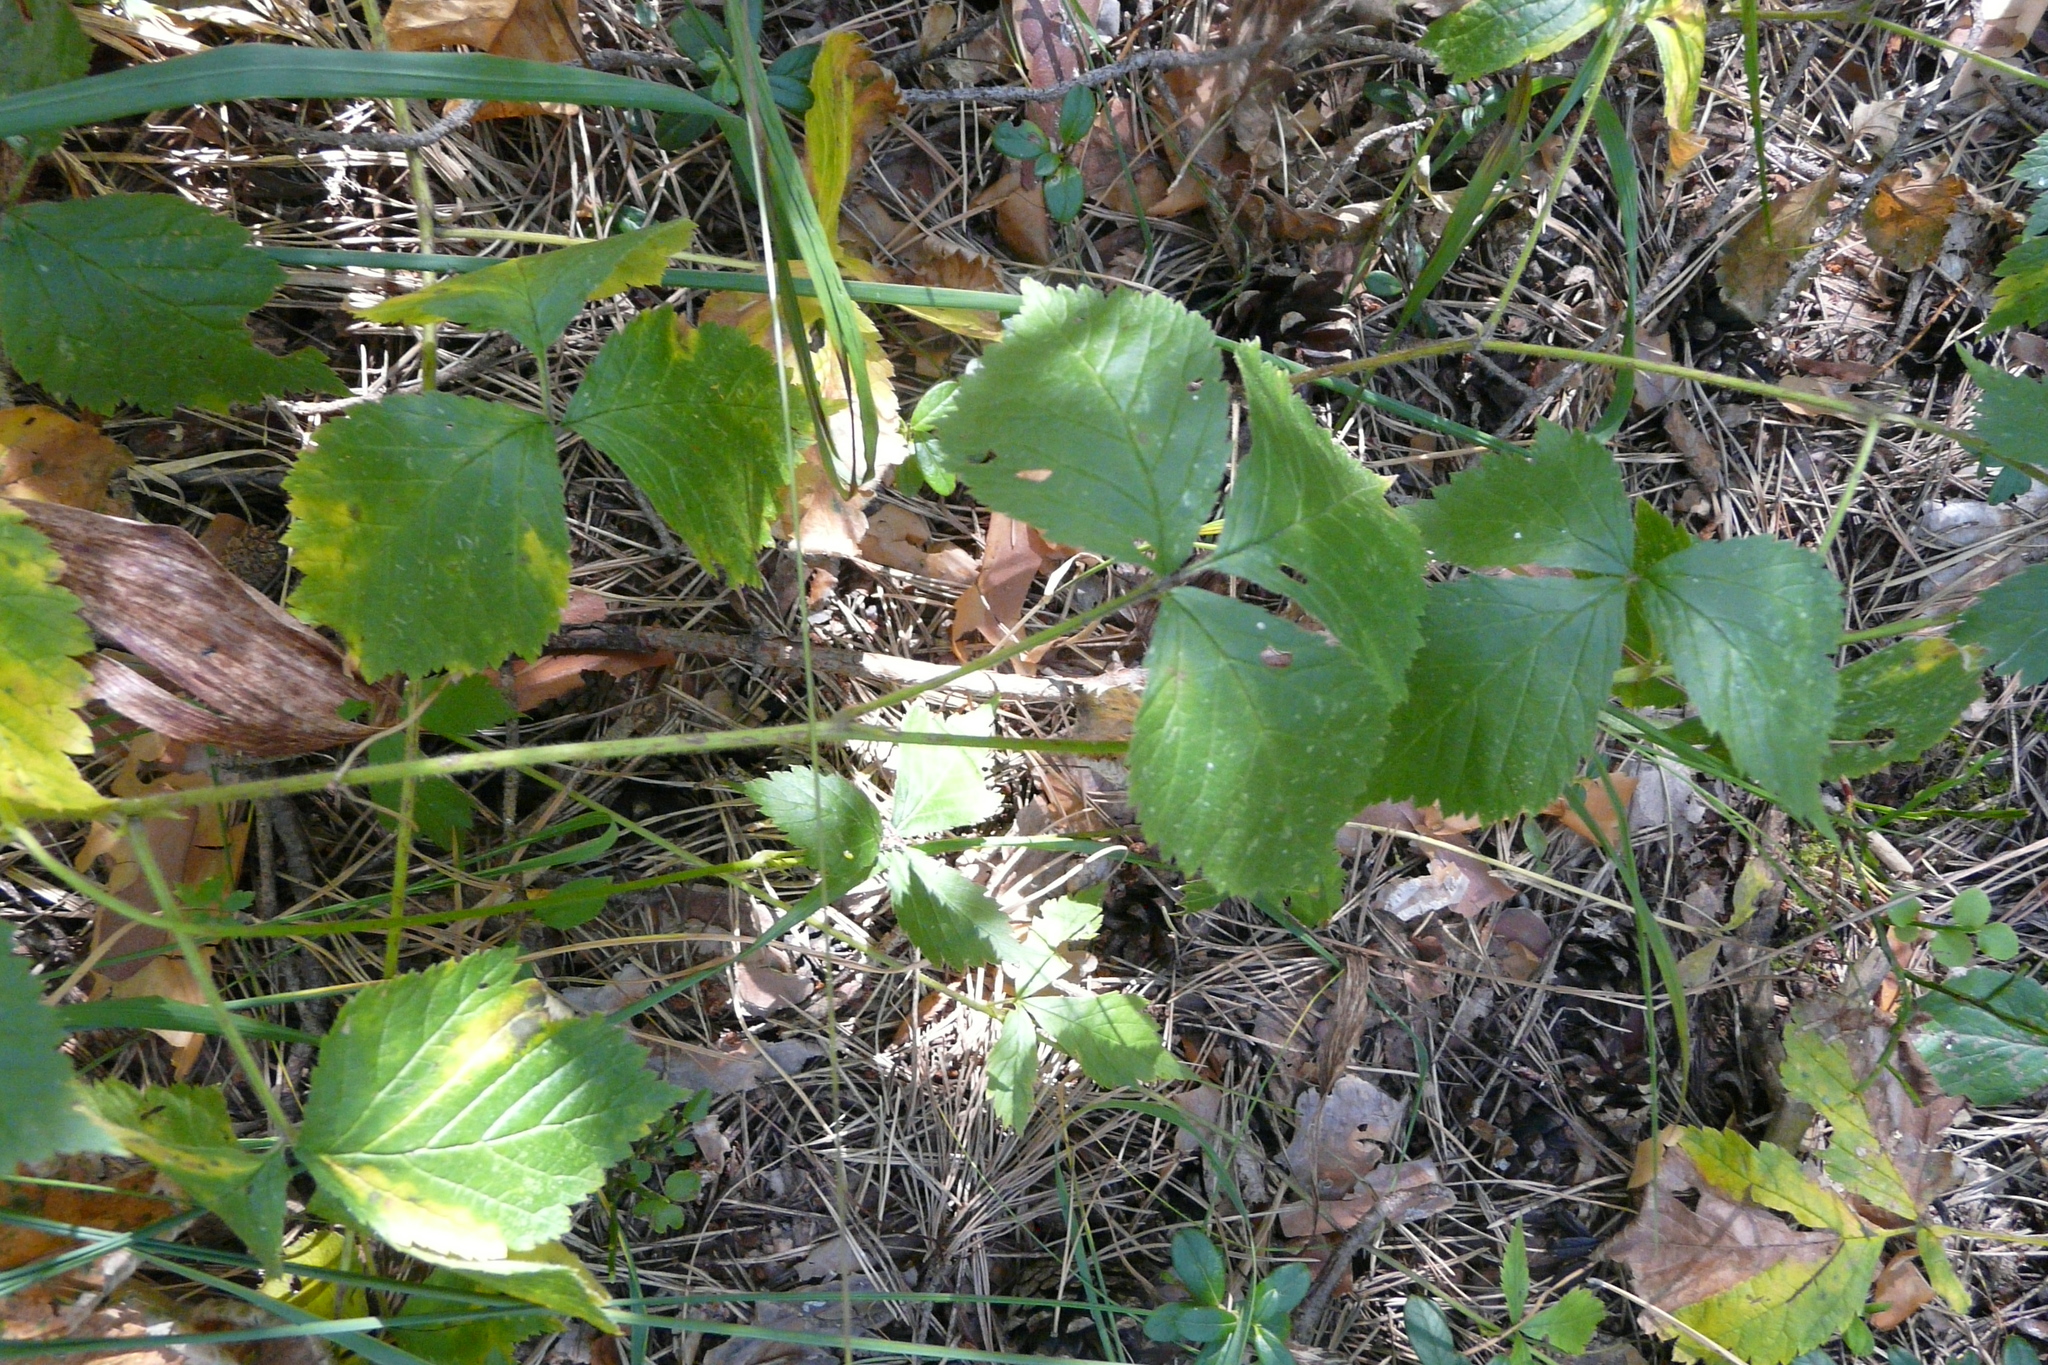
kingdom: Plantae
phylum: Tracheophyta
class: Magnoliopsida
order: Rosales
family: Rosaceae
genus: Rubus
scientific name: Rubus saxatilis
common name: Stone bramble
